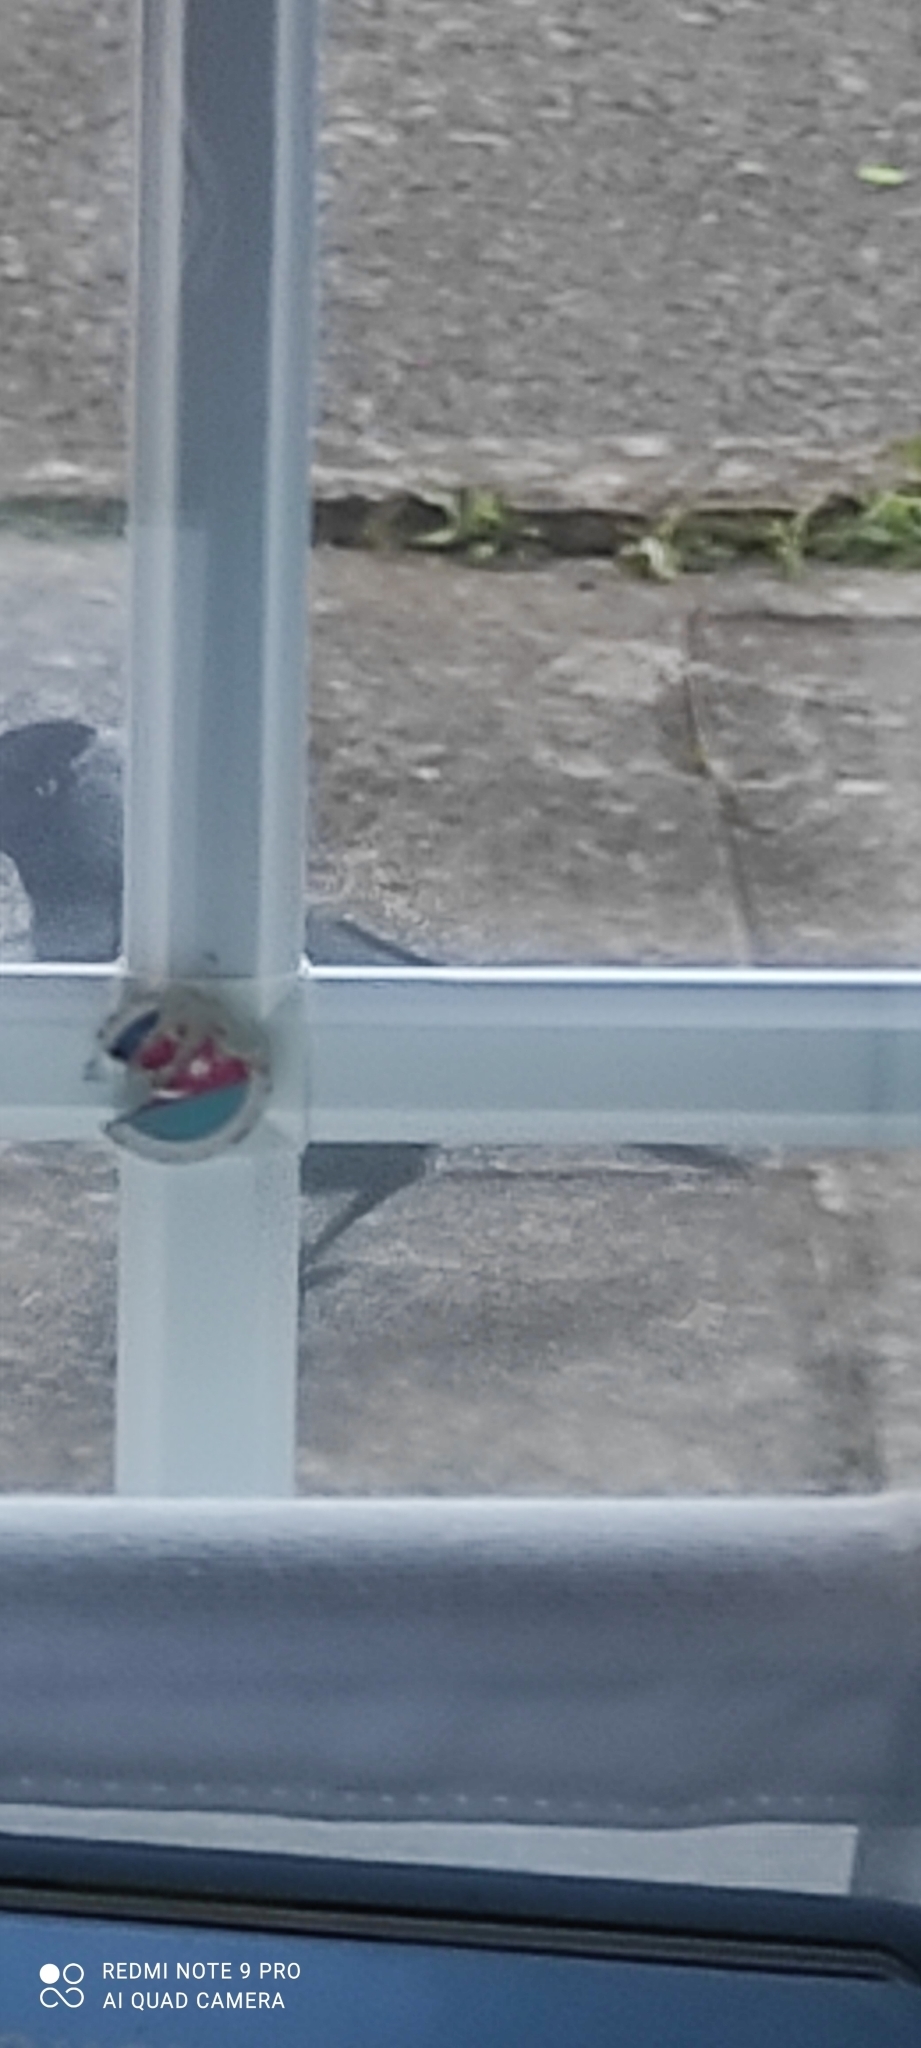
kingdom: Animalia
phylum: Chordata
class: Aves
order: Passeriformes
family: Corvidae
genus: Coloeus
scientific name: Coloeus monedula
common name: Western jackdaw
